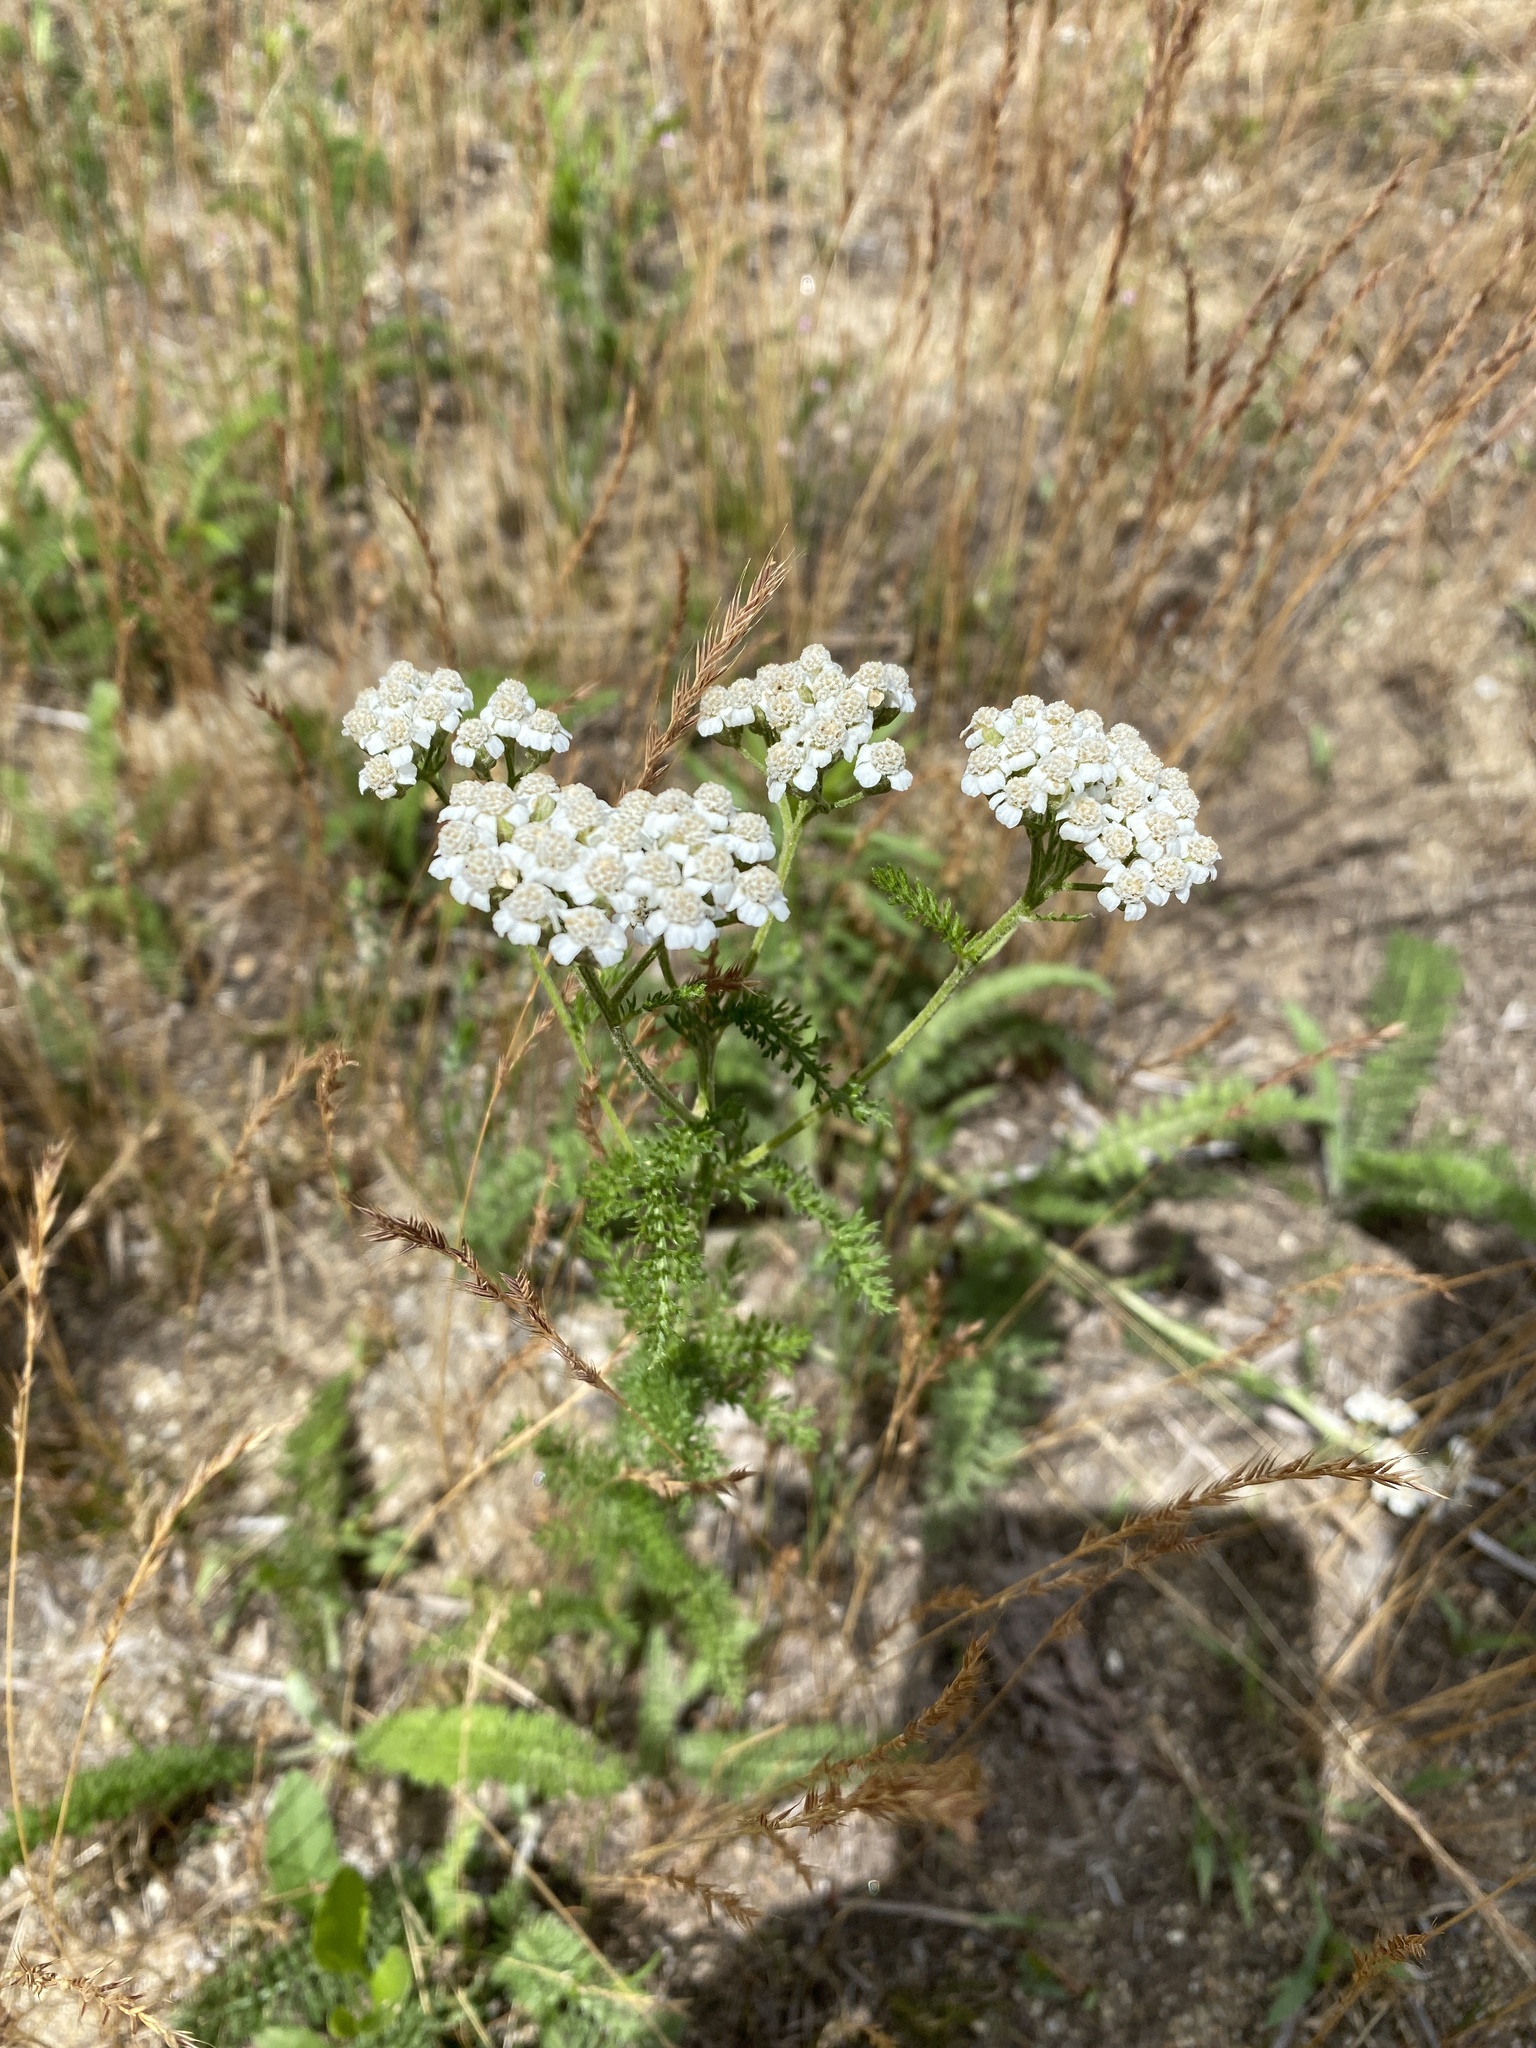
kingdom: Plantae
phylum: Tracheophyta
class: Magnoliopsida
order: Asterales
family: Asteraceae
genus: Achillea
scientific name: Achillea millefolium
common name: Yarrow
